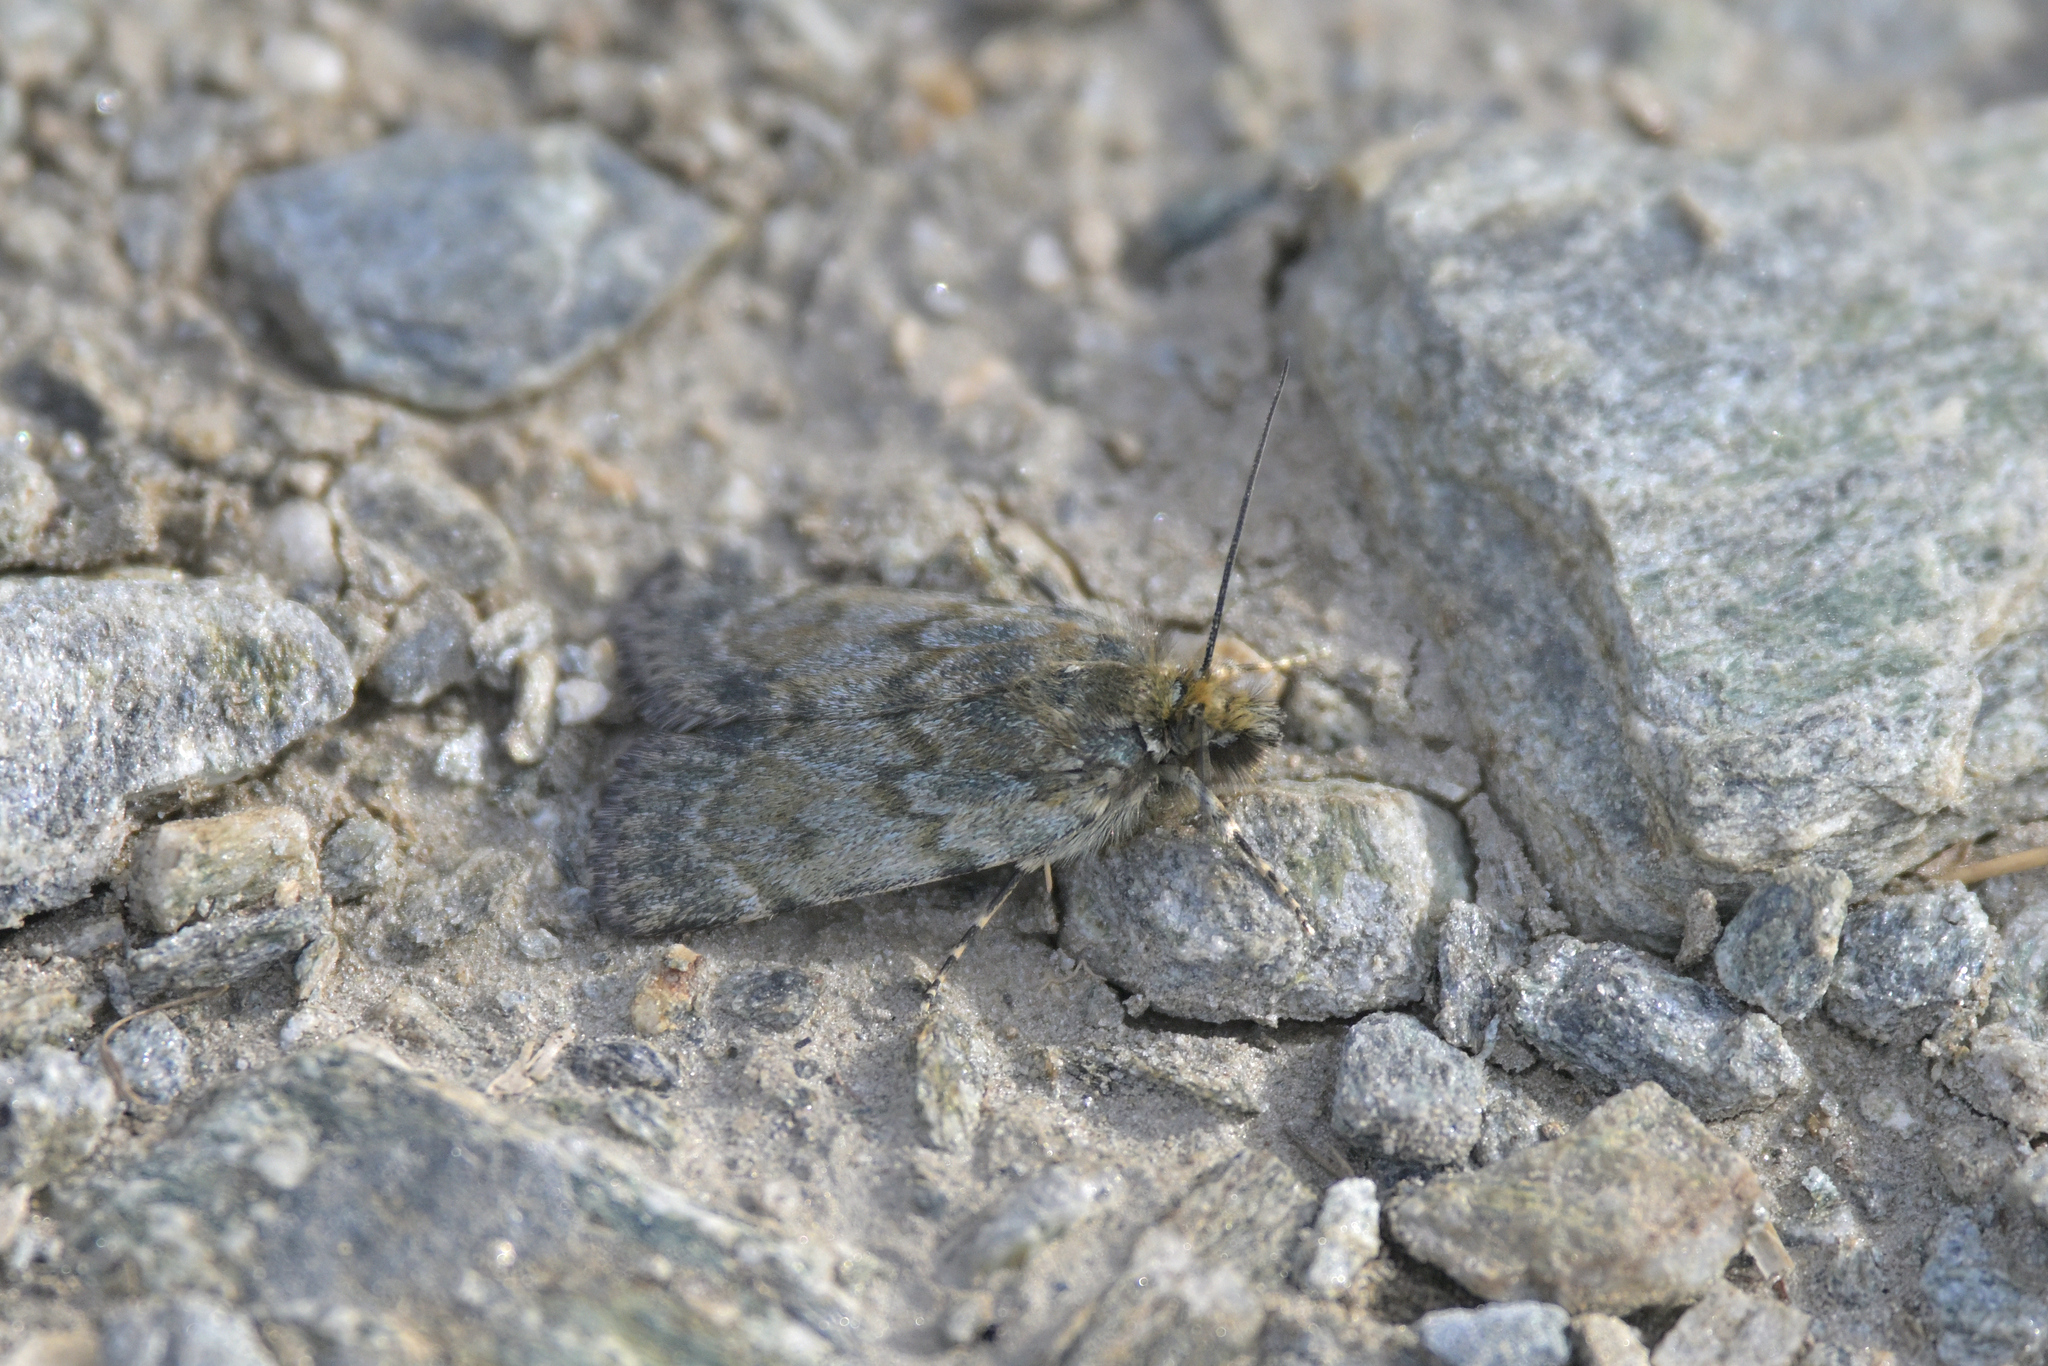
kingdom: Animalia
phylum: Arthropoda
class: Insecta
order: Lepidoptera
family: Crambidae
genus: Tawhitia
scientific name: Tawhitia glaucophanes
